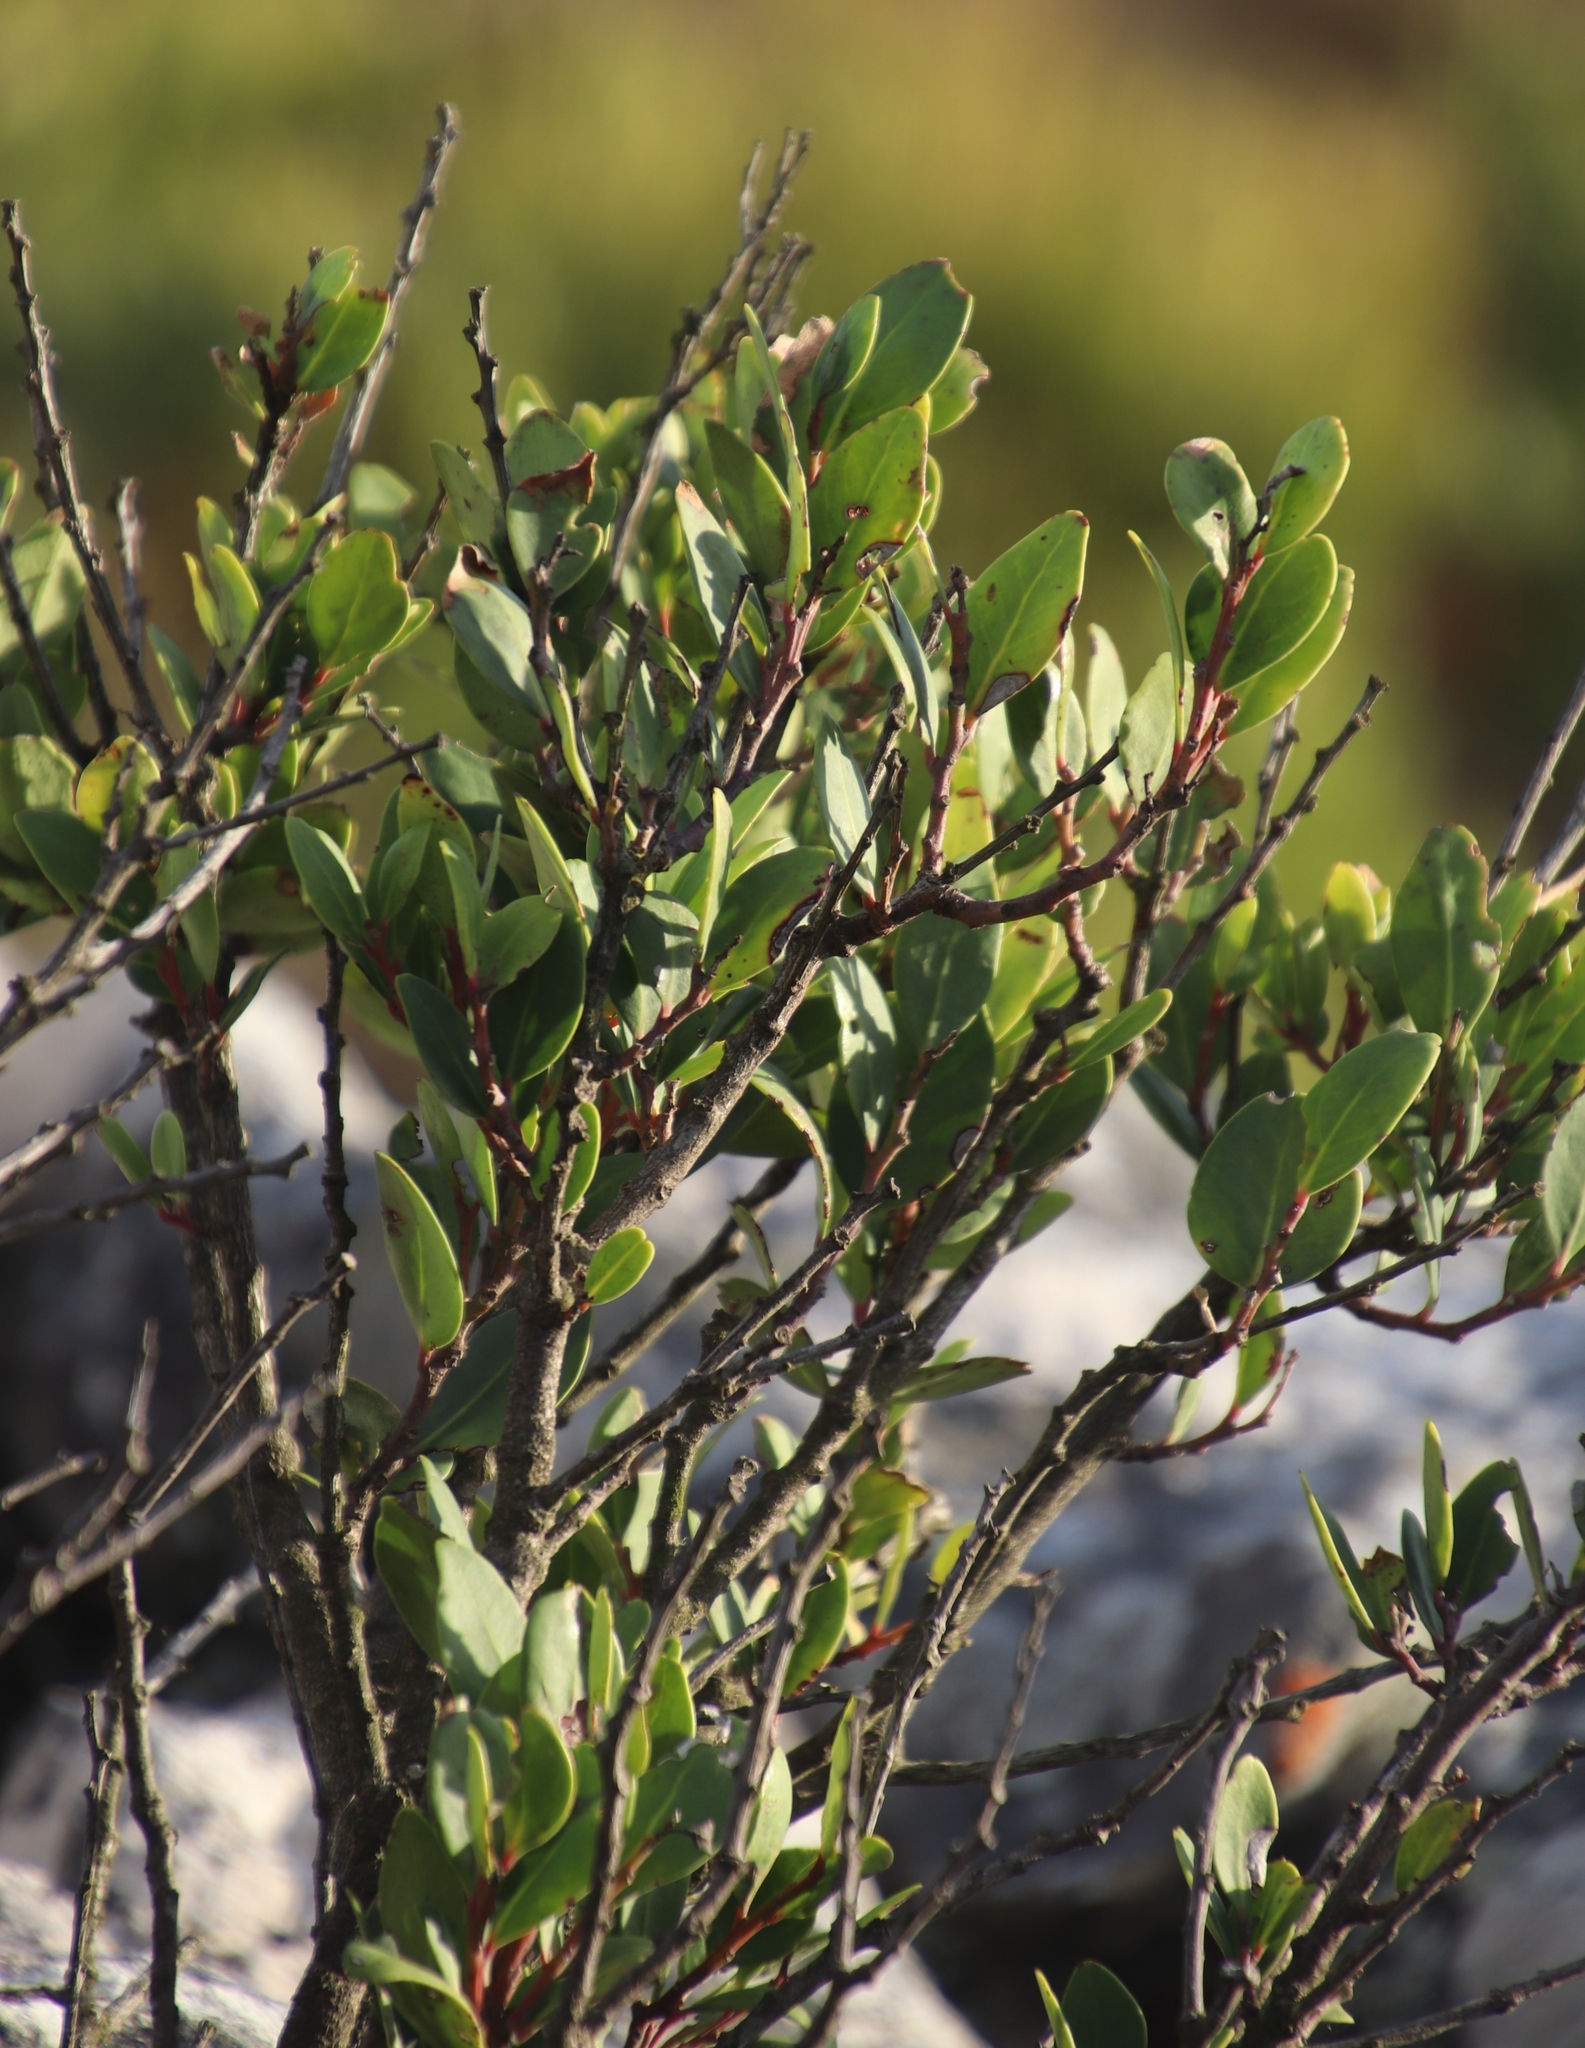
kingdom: Plantae
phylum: Tracheophyta
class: Magnoliopsida
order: Celastrales
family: Celastraceae
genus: Gymnosporia
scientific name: Gymnosporia laurina
